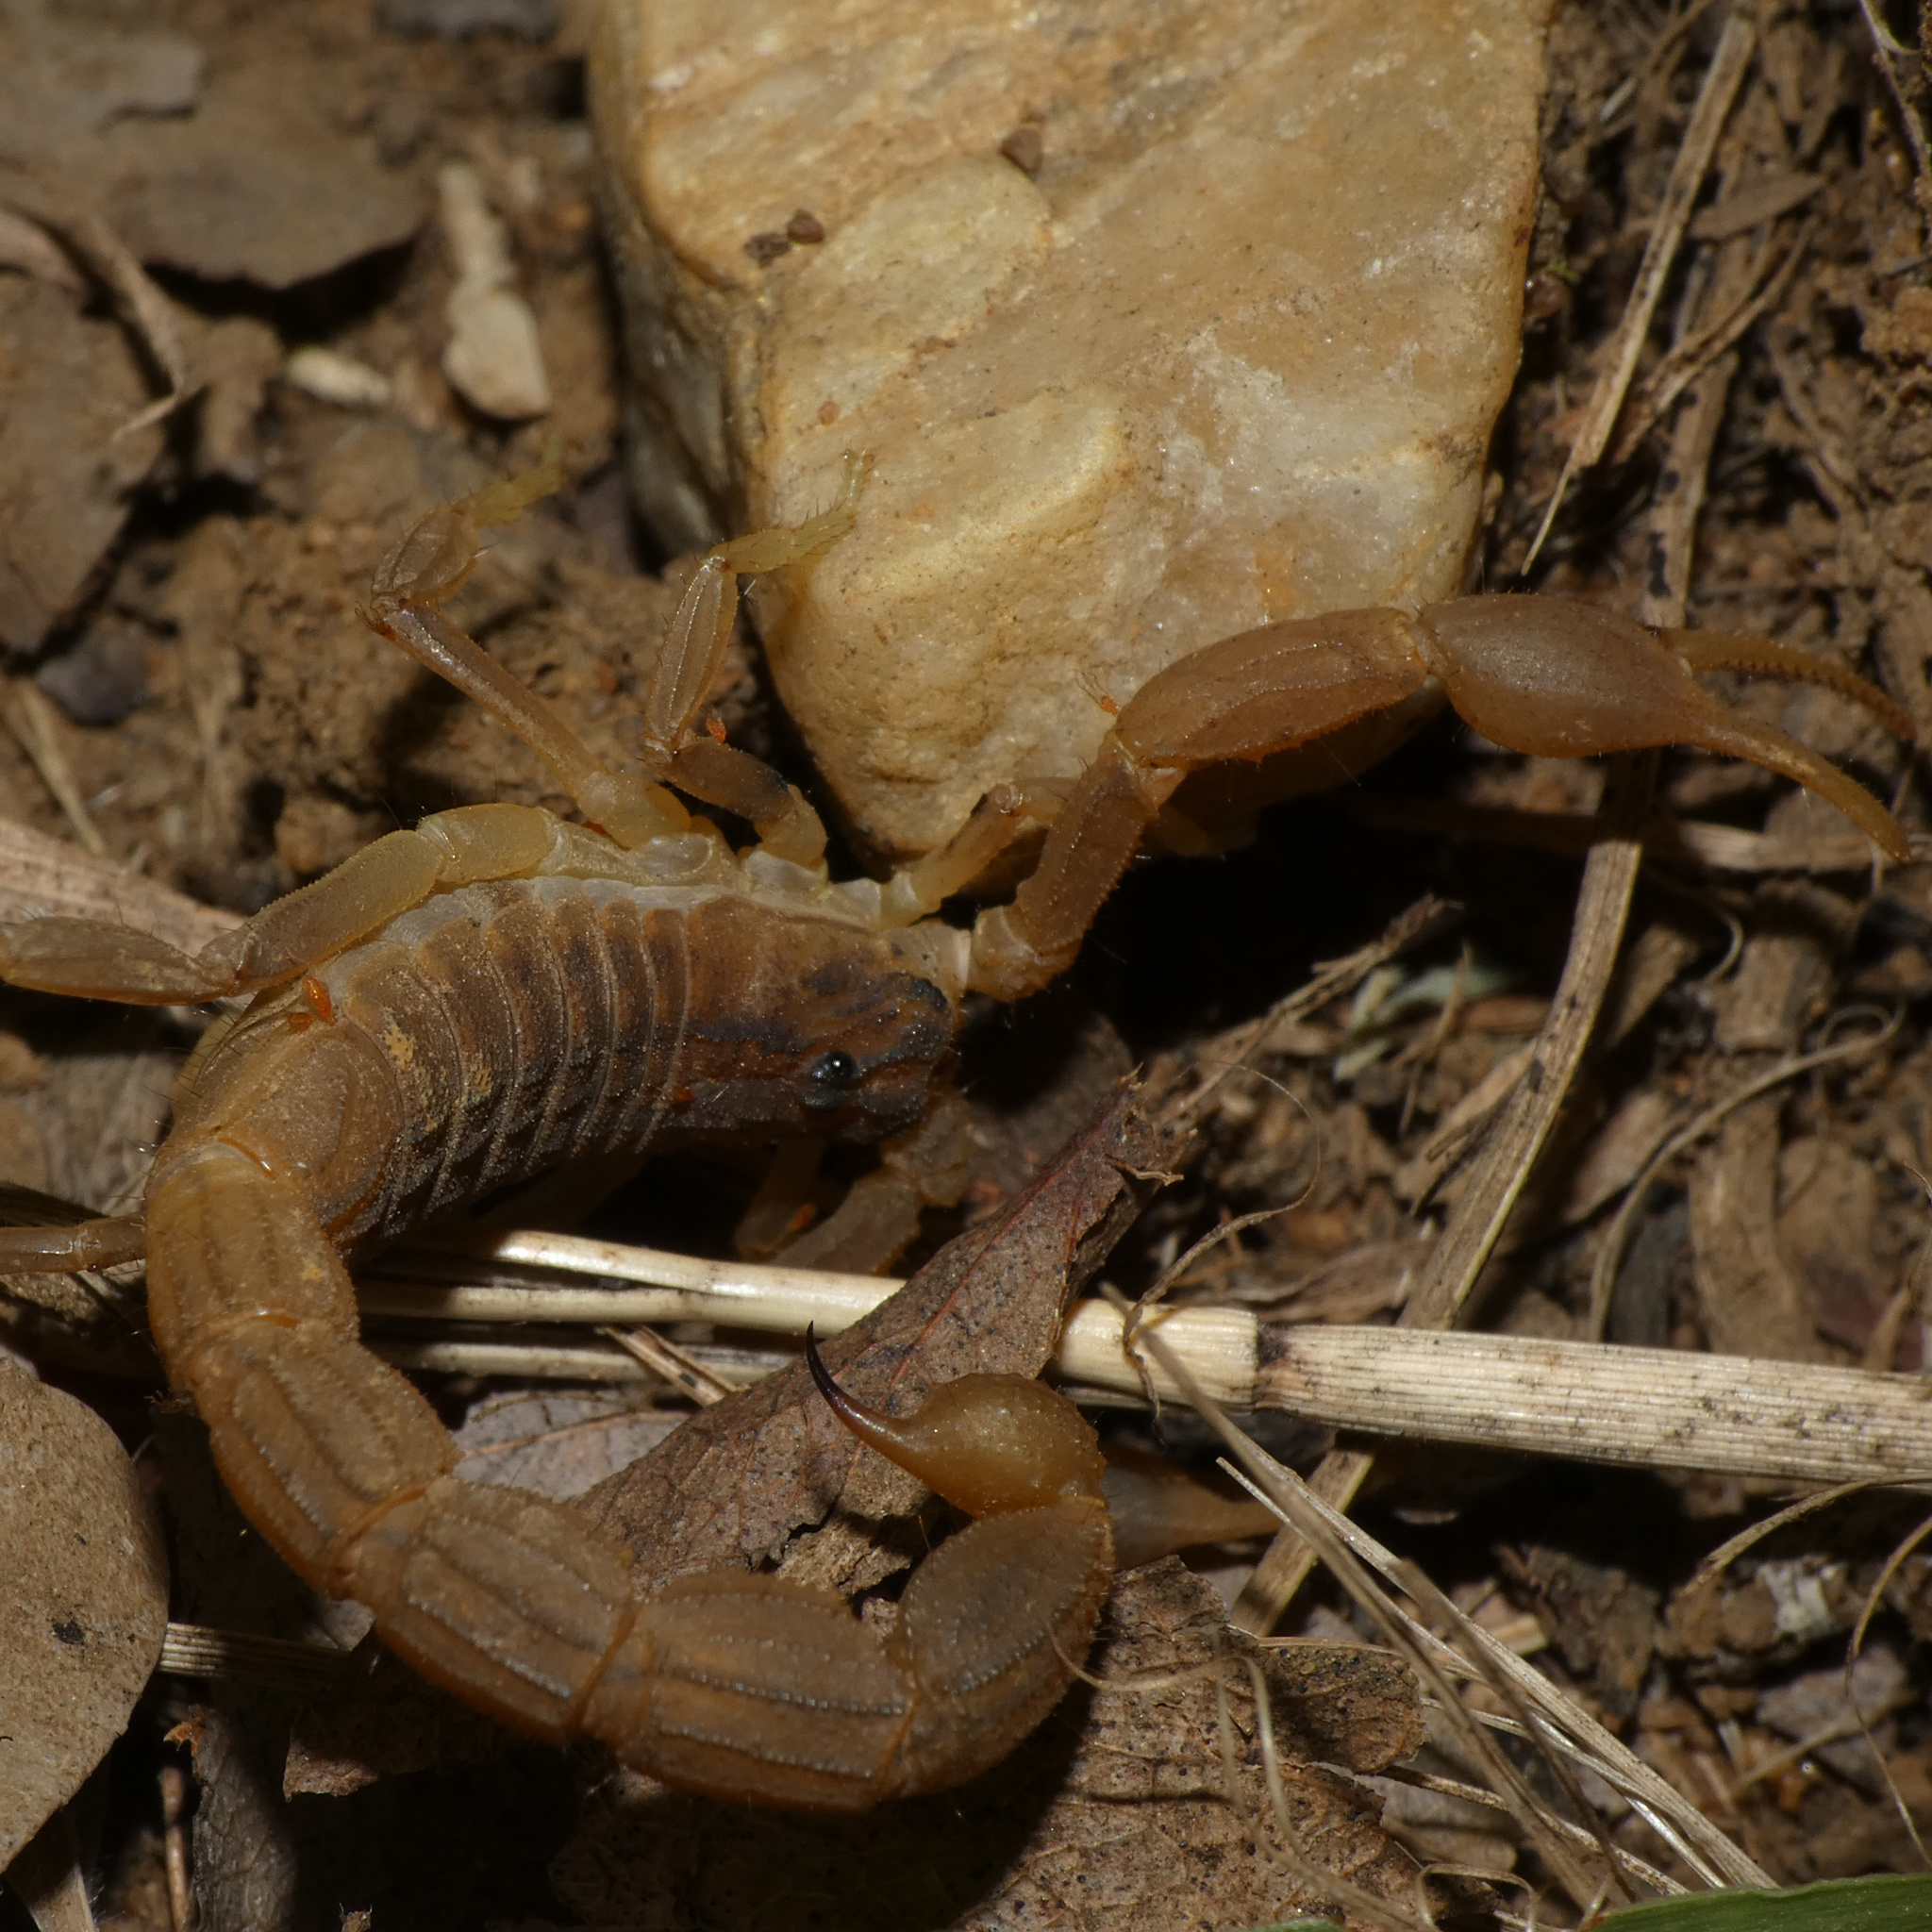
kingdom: Animalia
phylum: Arthropoda
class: Arachnida
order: Scorpiones
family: Buthidae
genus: Hottentotta
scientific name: Hottentotta trilineatus
